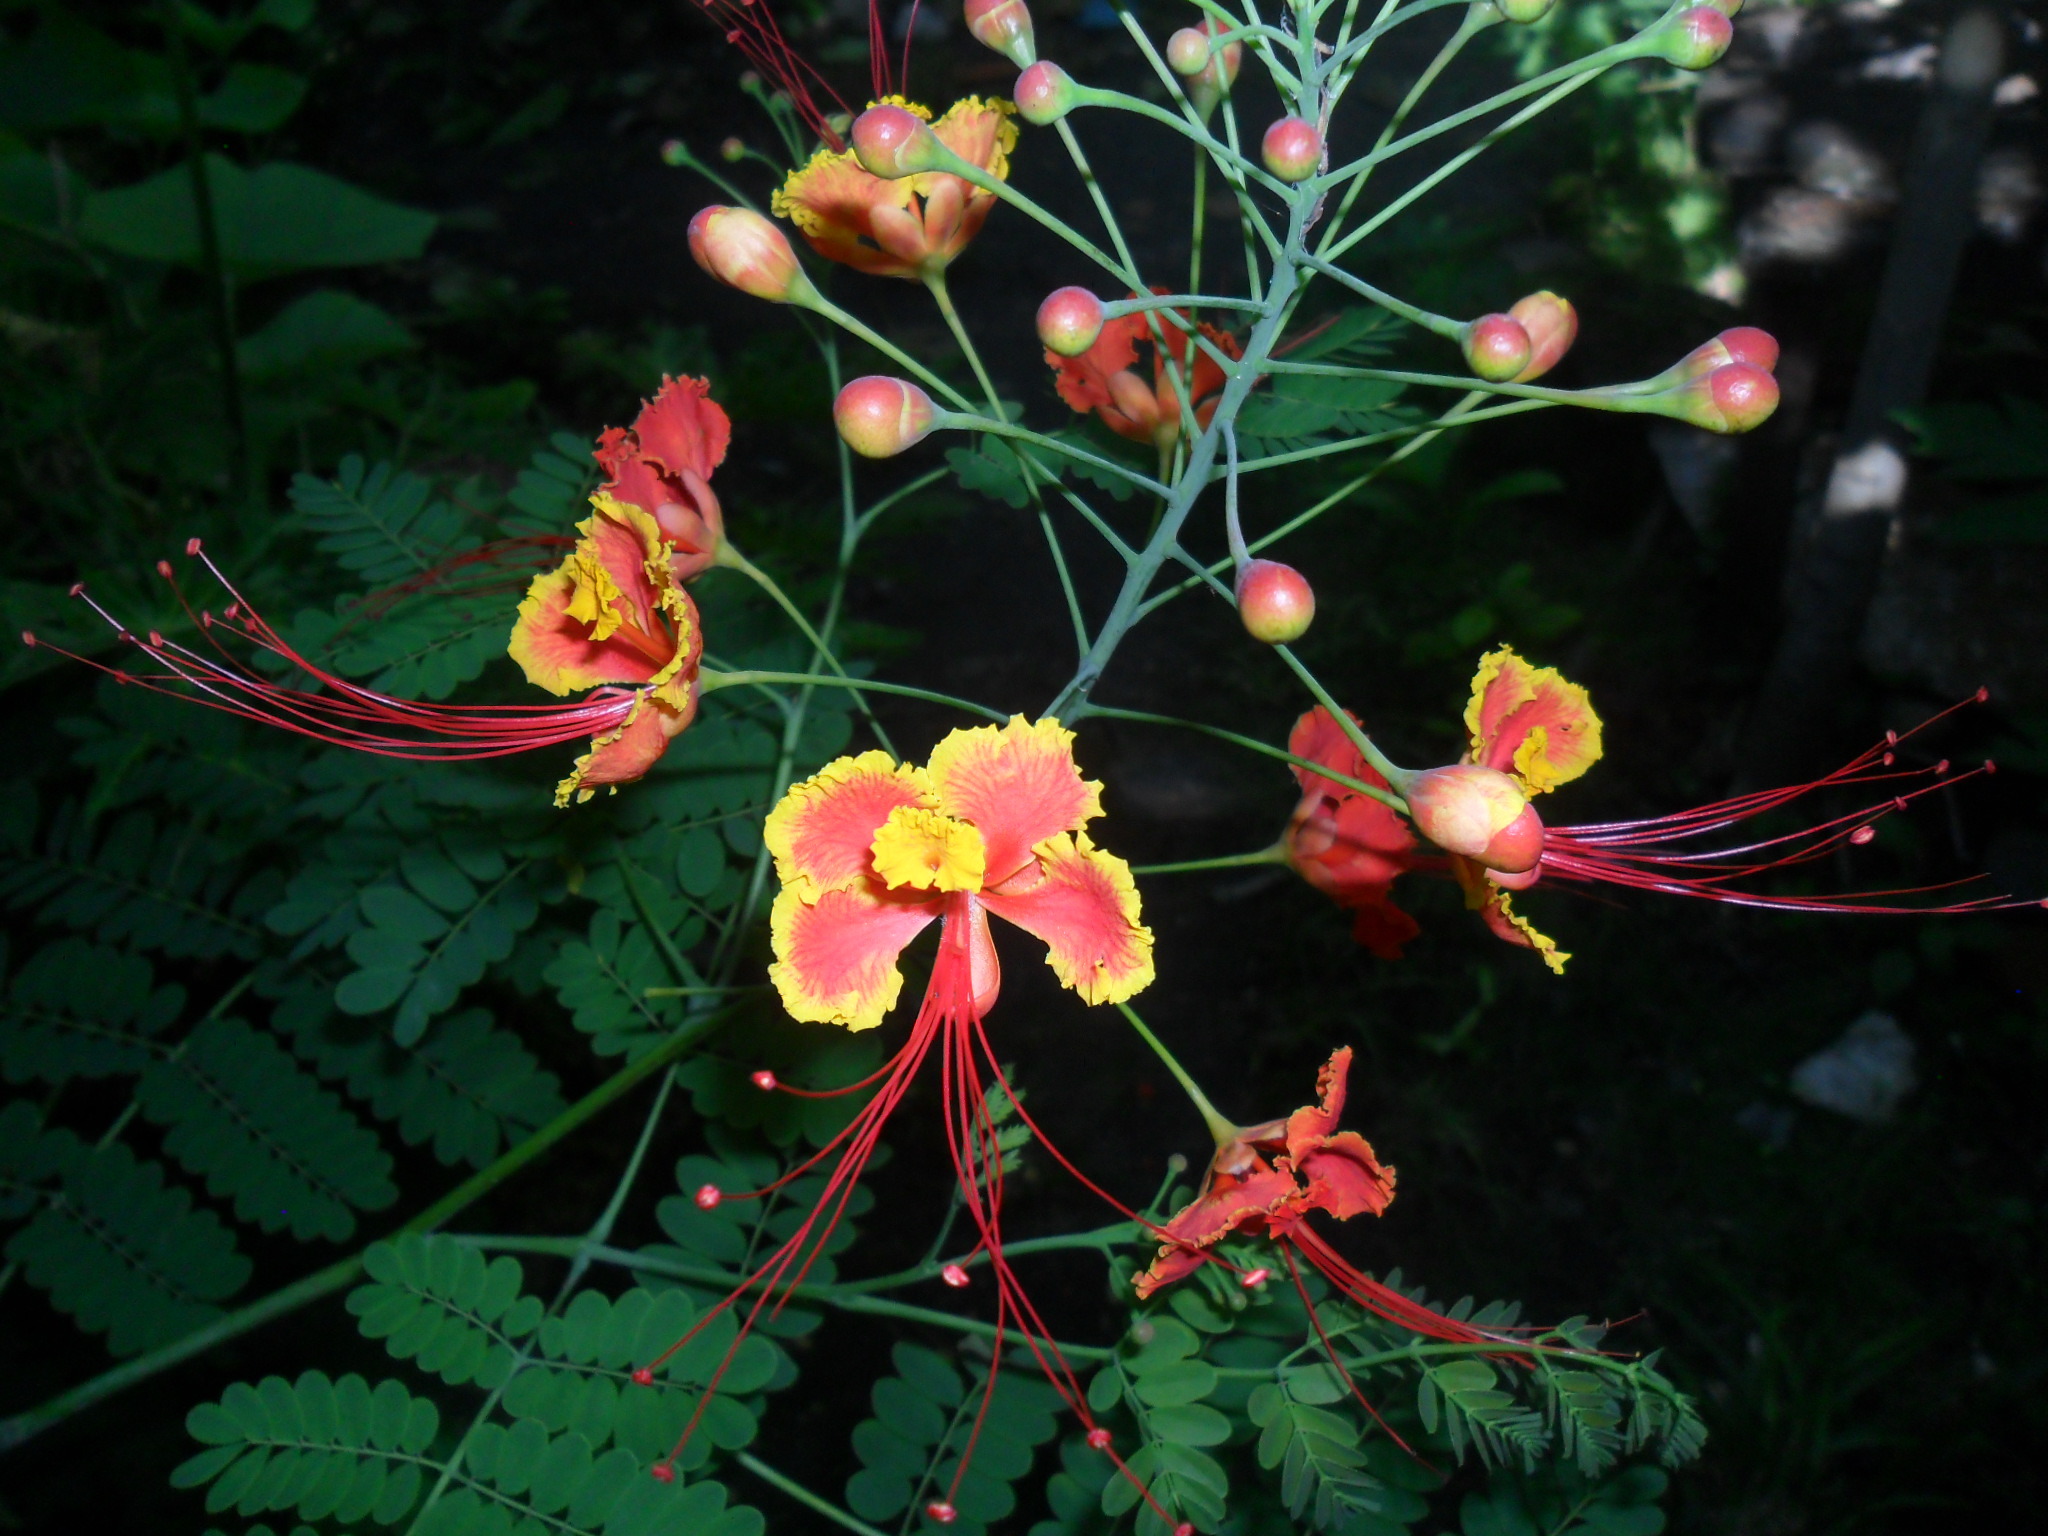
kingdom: Plantae
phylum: Tracheophyta
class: Magnoliopsida
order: Fabales
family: Fabaceae
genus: Caesalpinia
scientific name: Caesalpinia pulcherrima
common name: Pride-of-barbados
